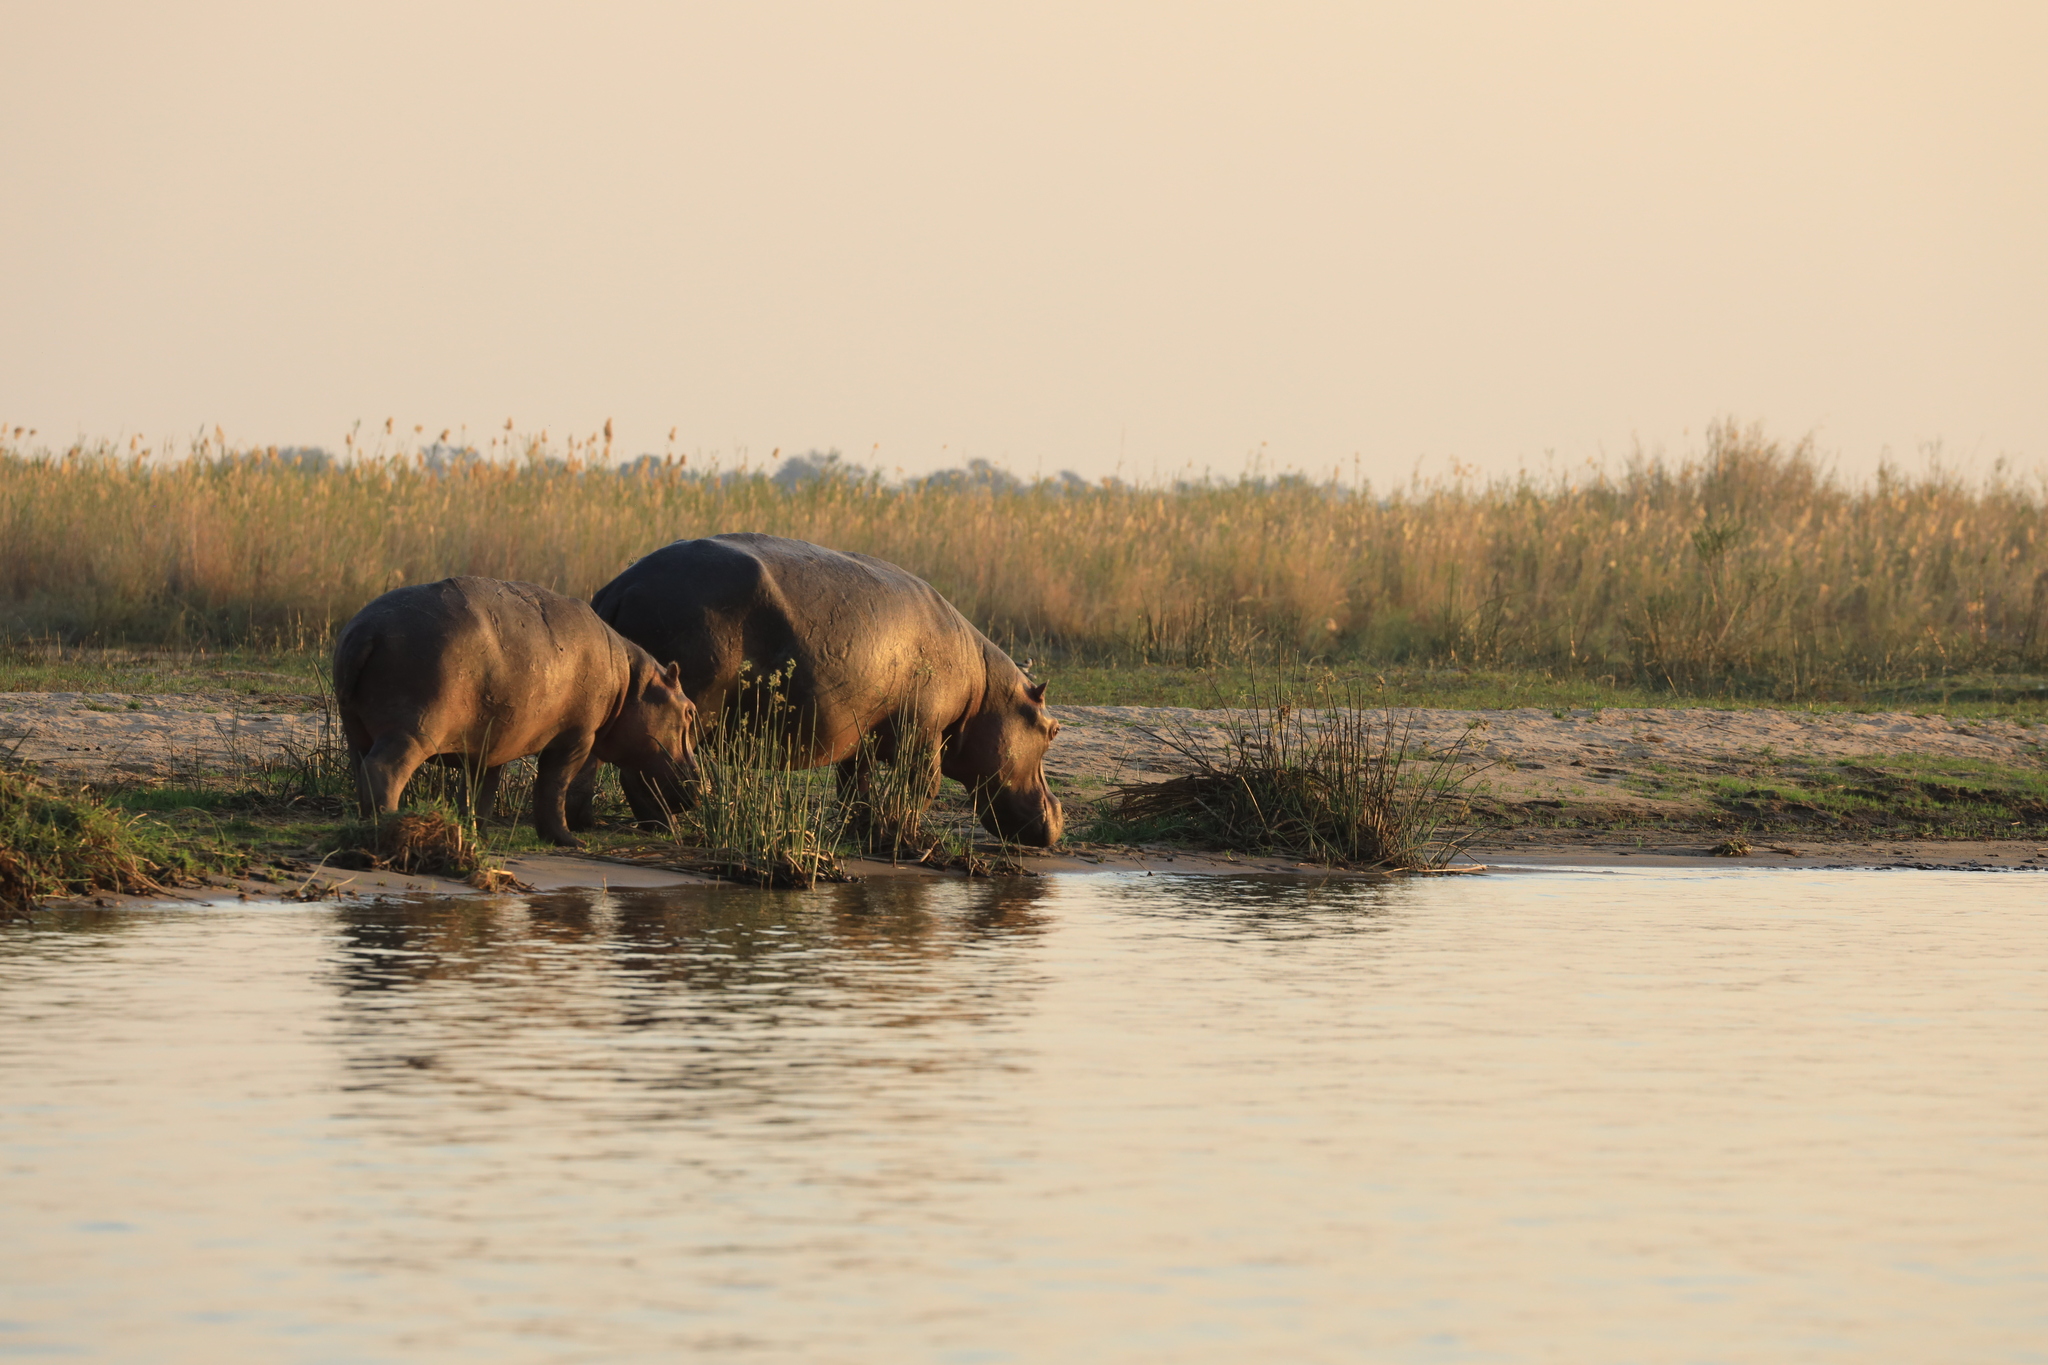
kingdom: Animalia
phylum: Chordata
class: Mammalia
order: Artiodactyla
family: Hippopotamidae
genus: Hippopotamus
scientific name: Hippopotamus amphibius
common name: Common hippopotamus
